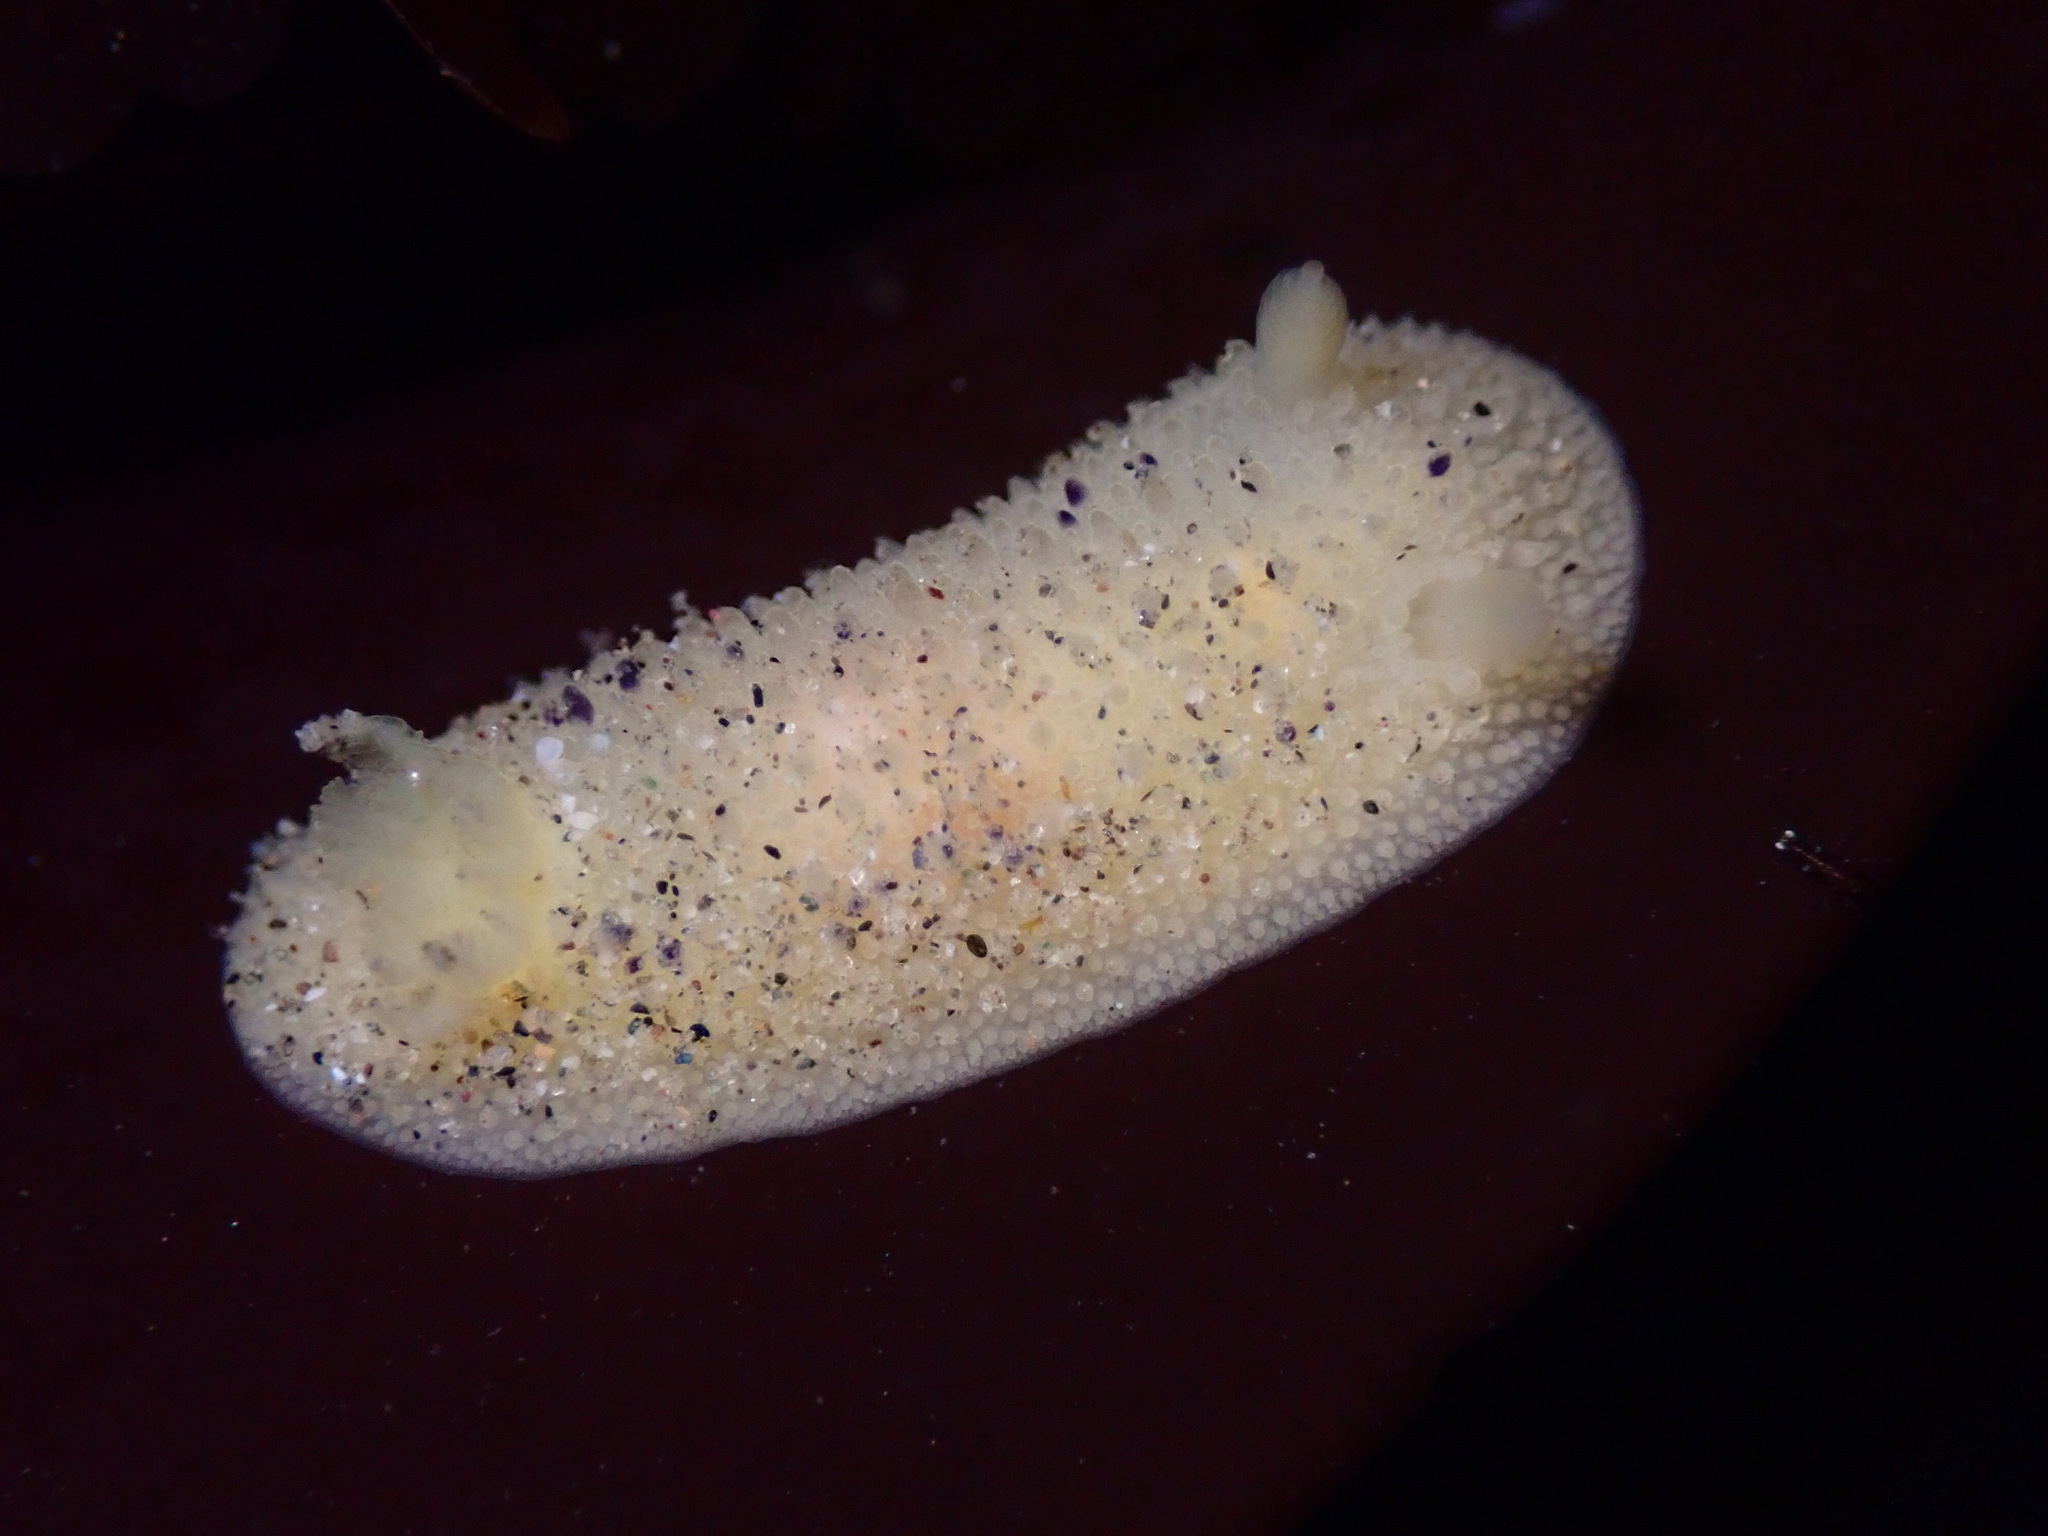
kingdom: Animalia
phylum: Mollusca
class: Gastropoda
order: Nudibranchia
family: Dorididae
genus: Doris
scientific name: Doris montereyensis
